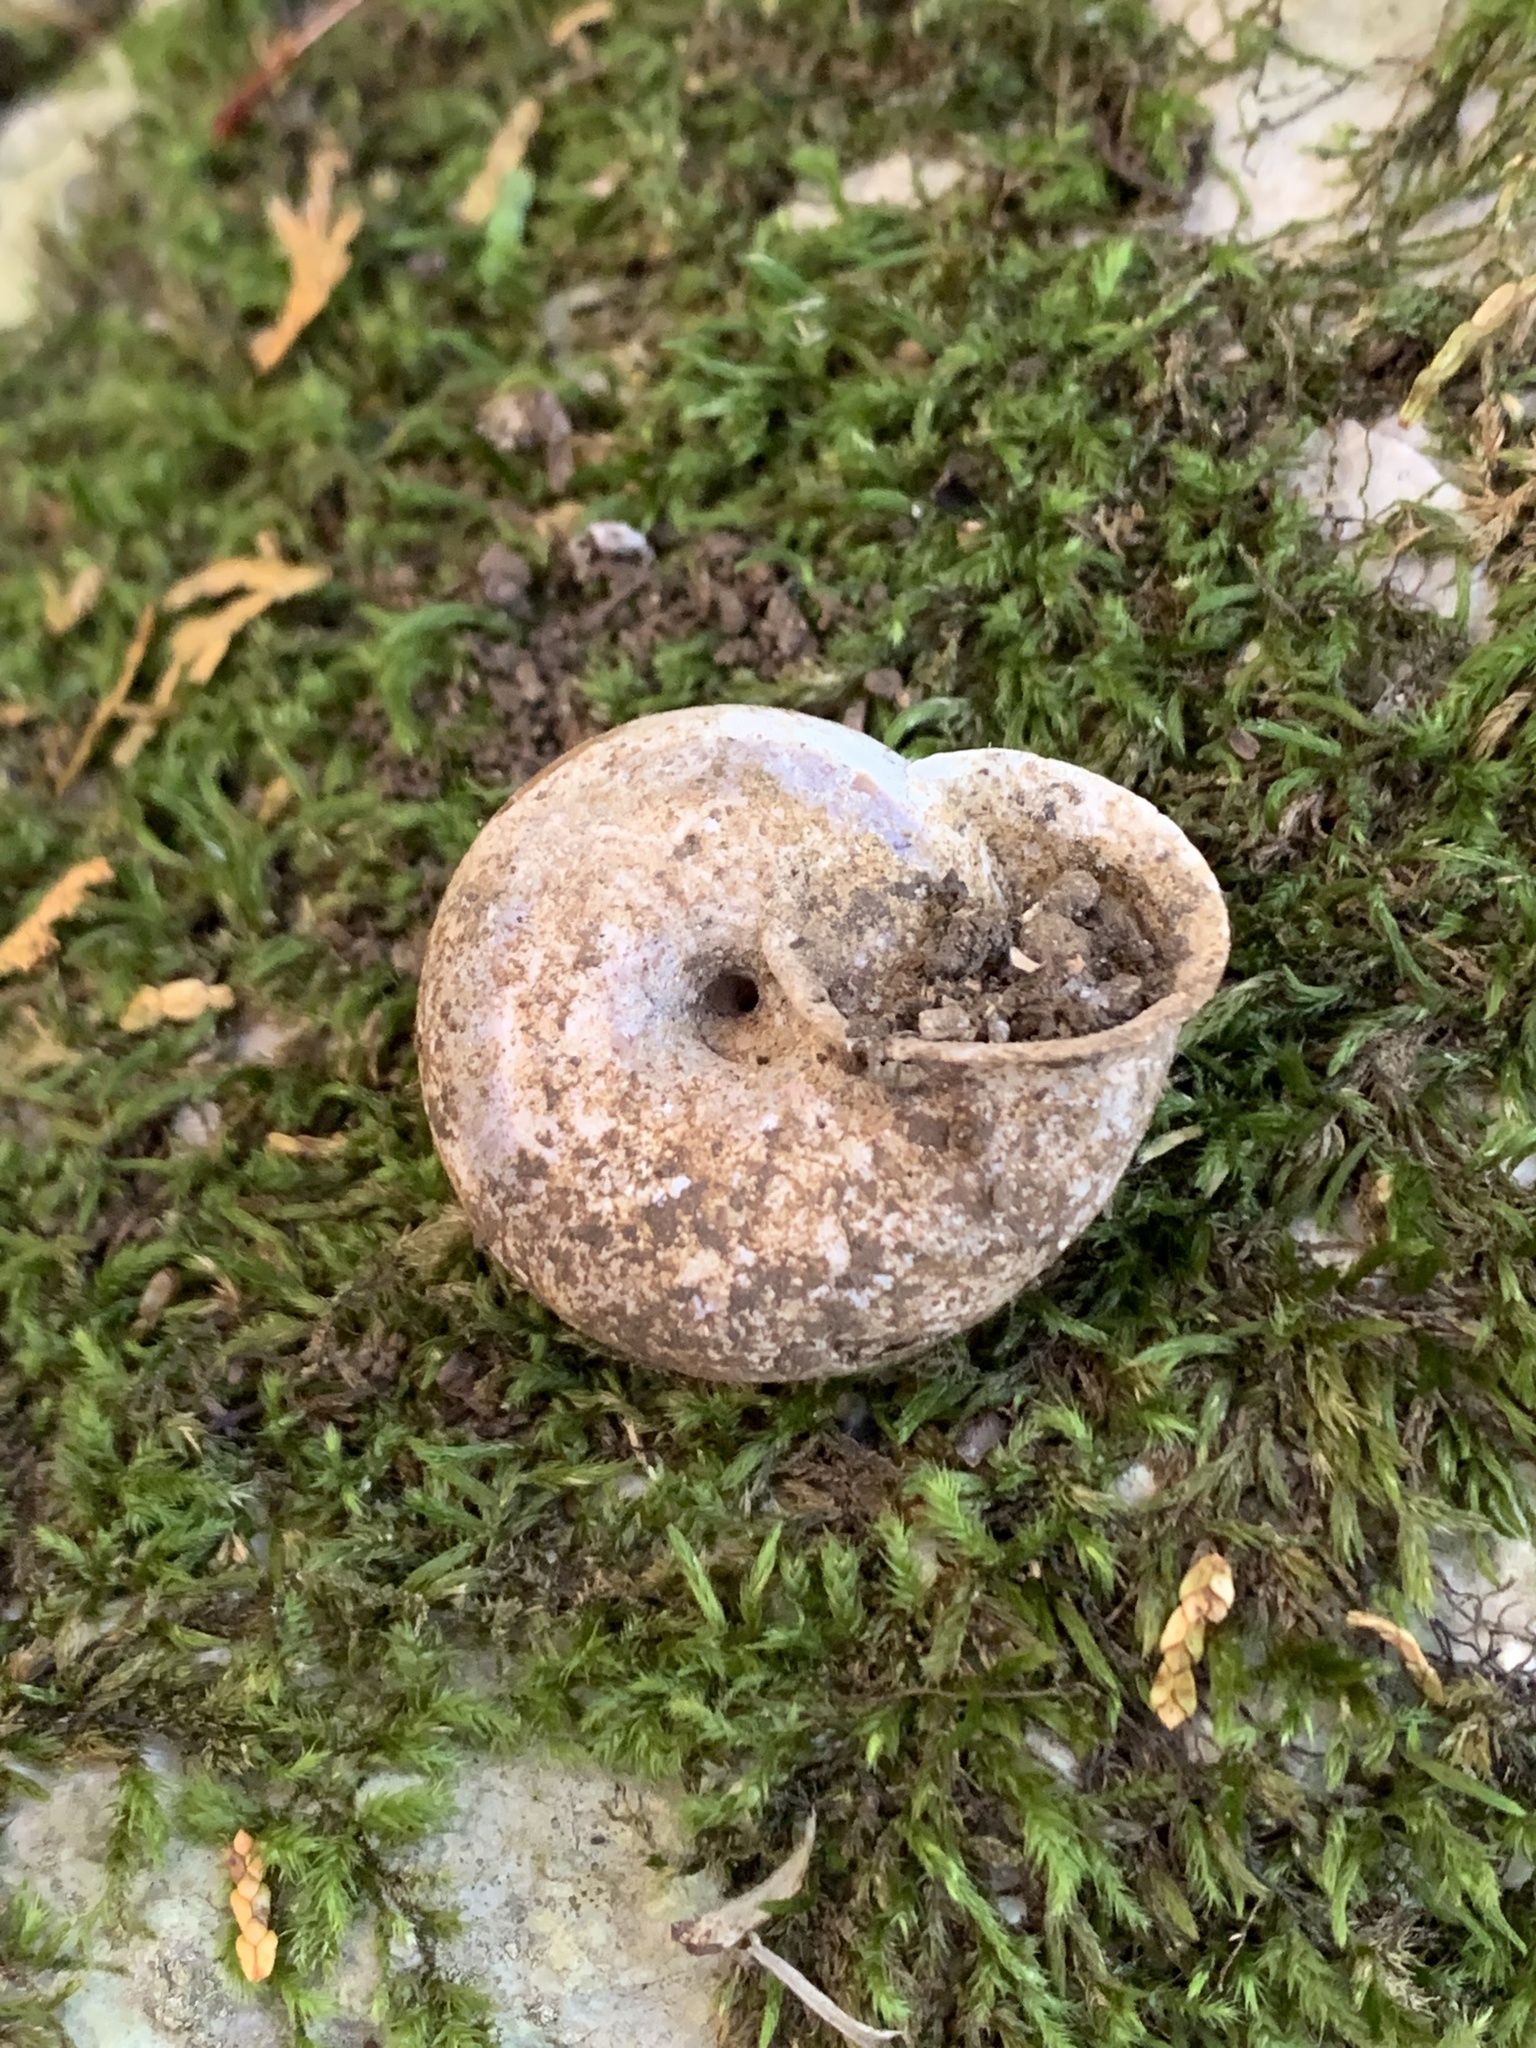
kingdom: Animalia
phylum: Mollusca
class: Gastropoda
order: Stylommatophora
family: Camaenidae
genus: Euhadra
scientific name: Euhadra amaliae
